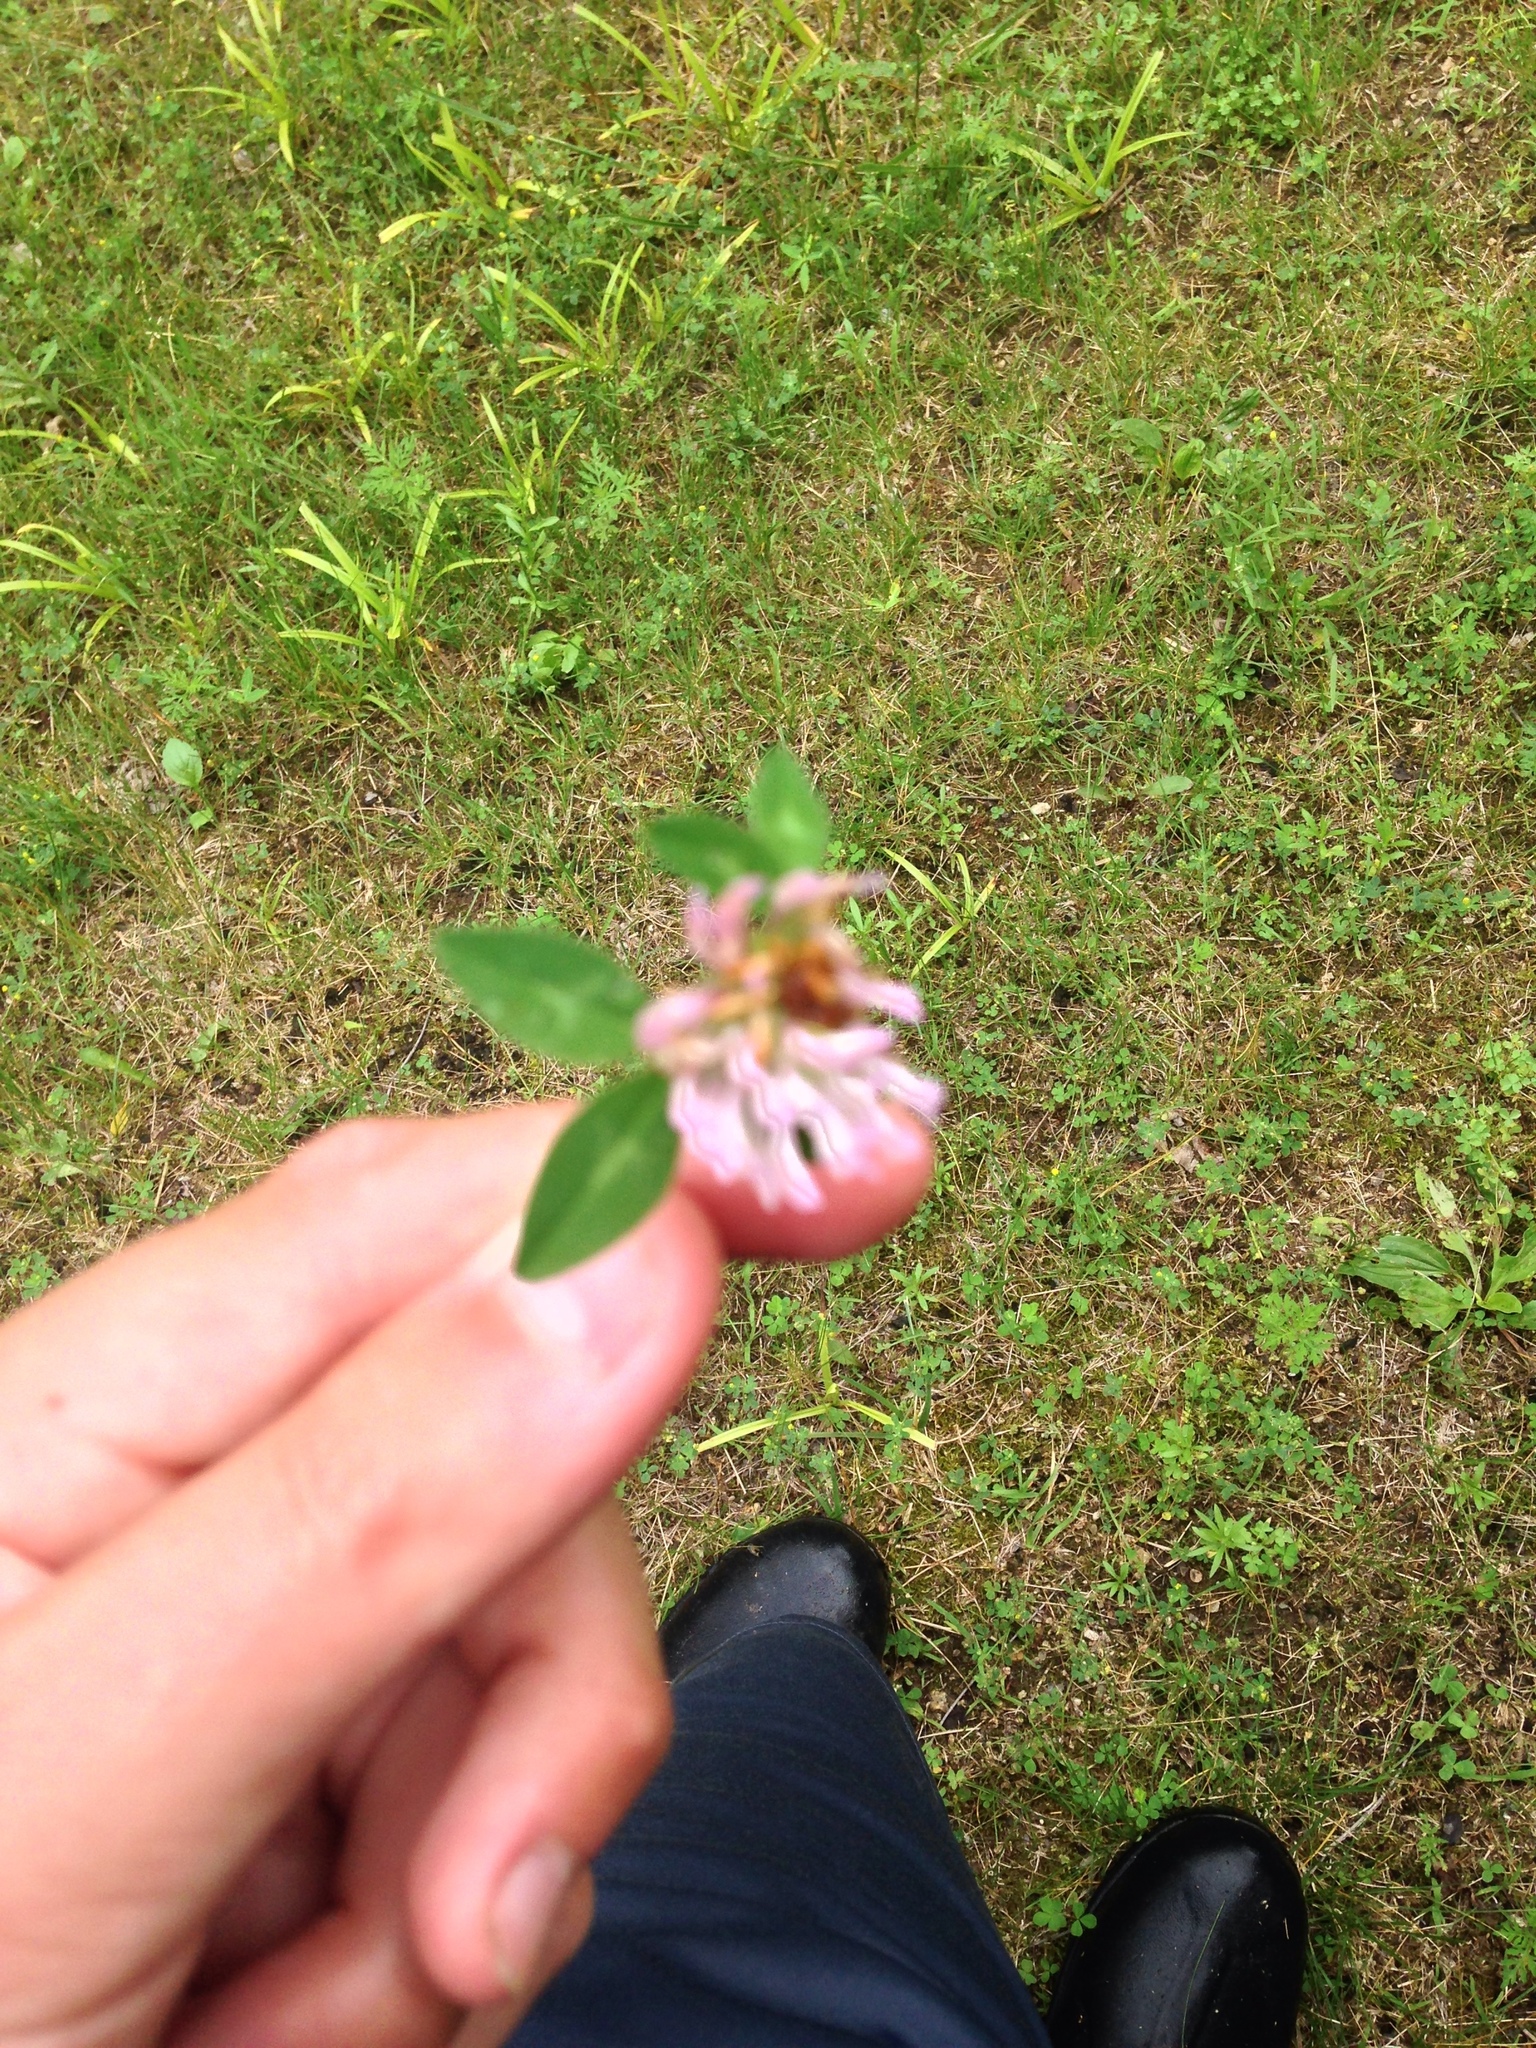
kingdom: Plantae
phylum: Tracheophyta
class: Magnoliopsida
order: Fabales
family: Fabaceae
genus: Trifolium
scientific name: Trifolium pratense
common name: Red clover
